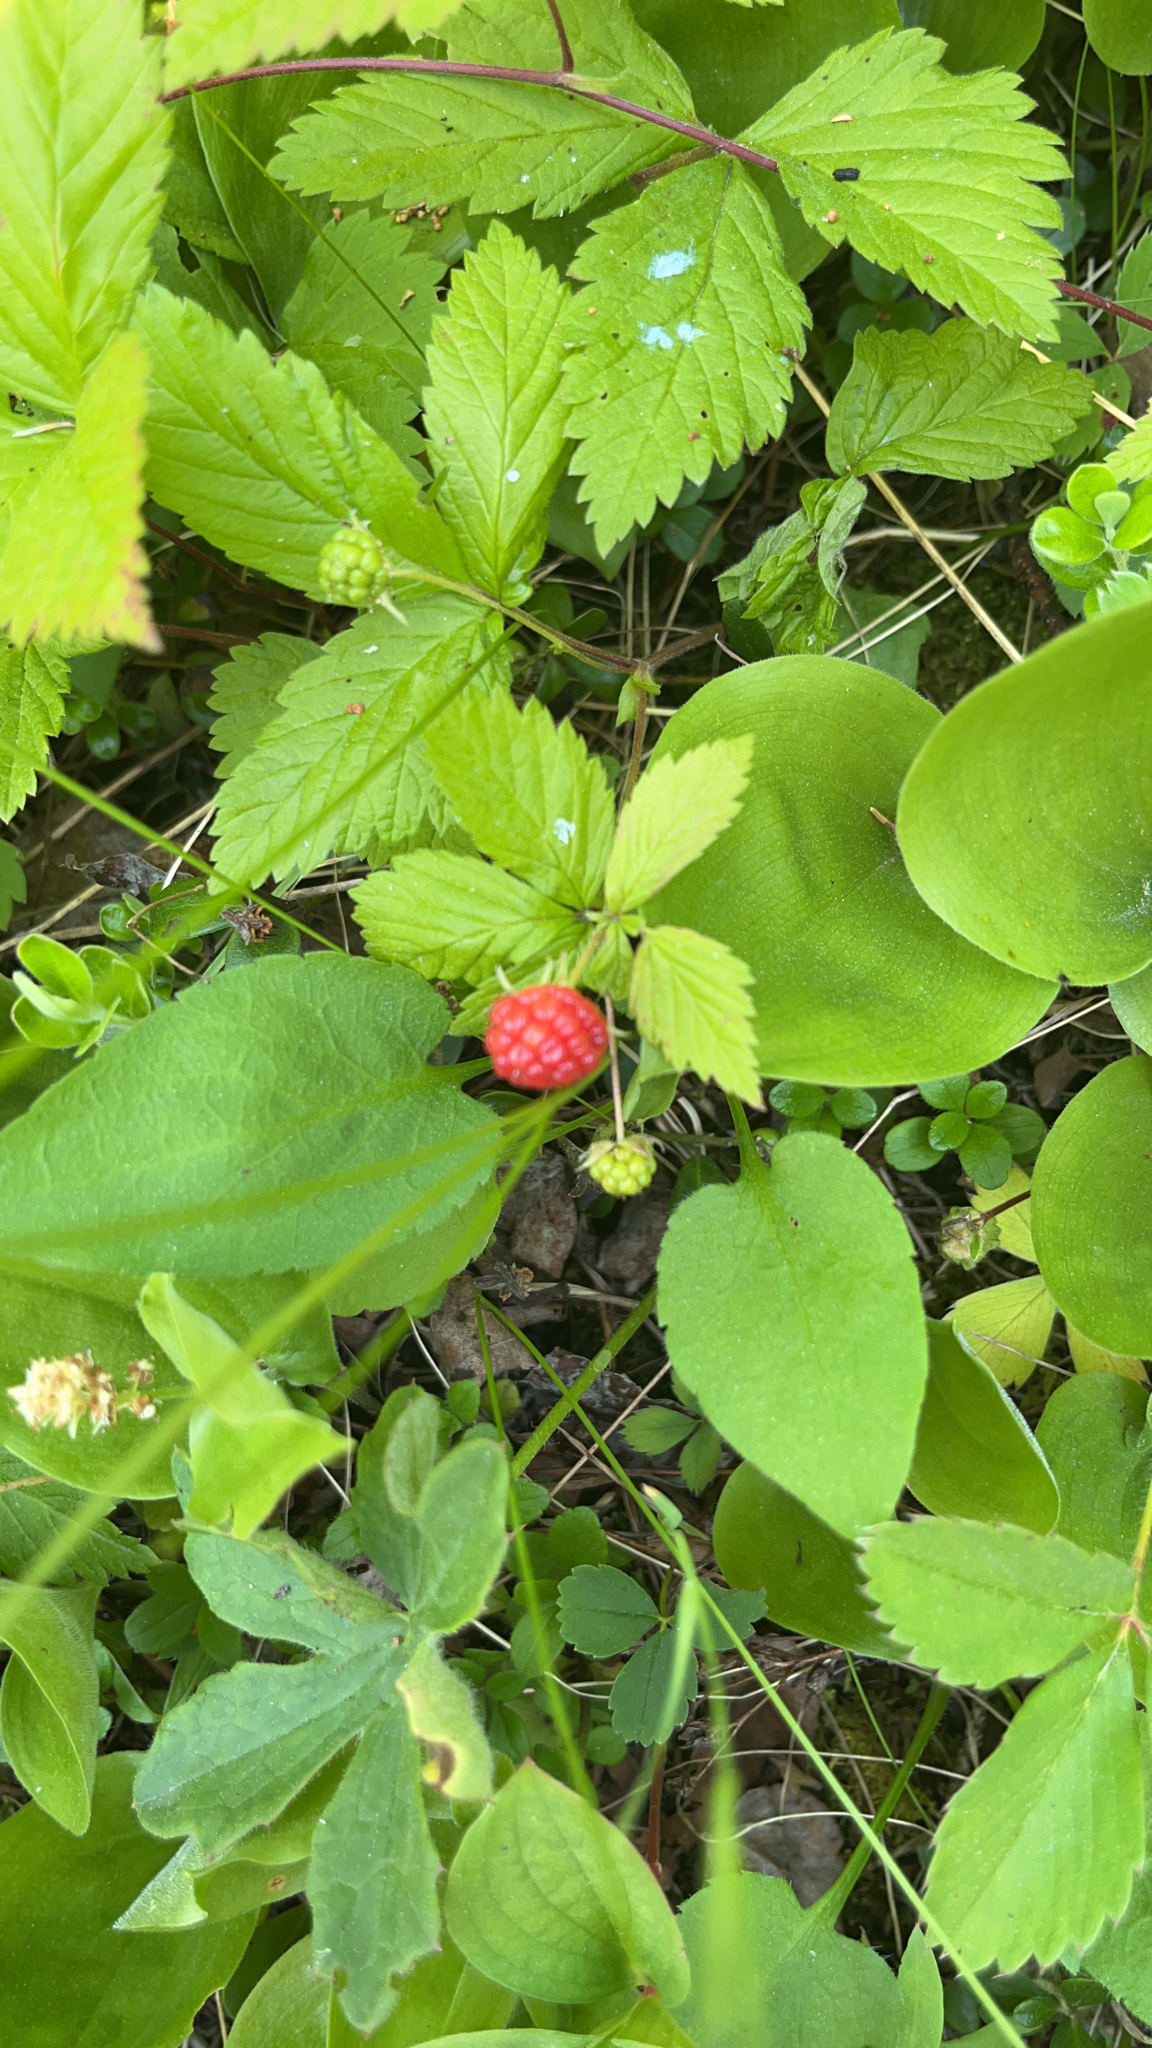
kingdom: Plantae
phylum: Tracheophyta
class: Magnoliopsida
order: Rosales
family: Rosaceae
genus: Rubus
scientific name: Rubus pubescens
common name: Dwarf raspberry
